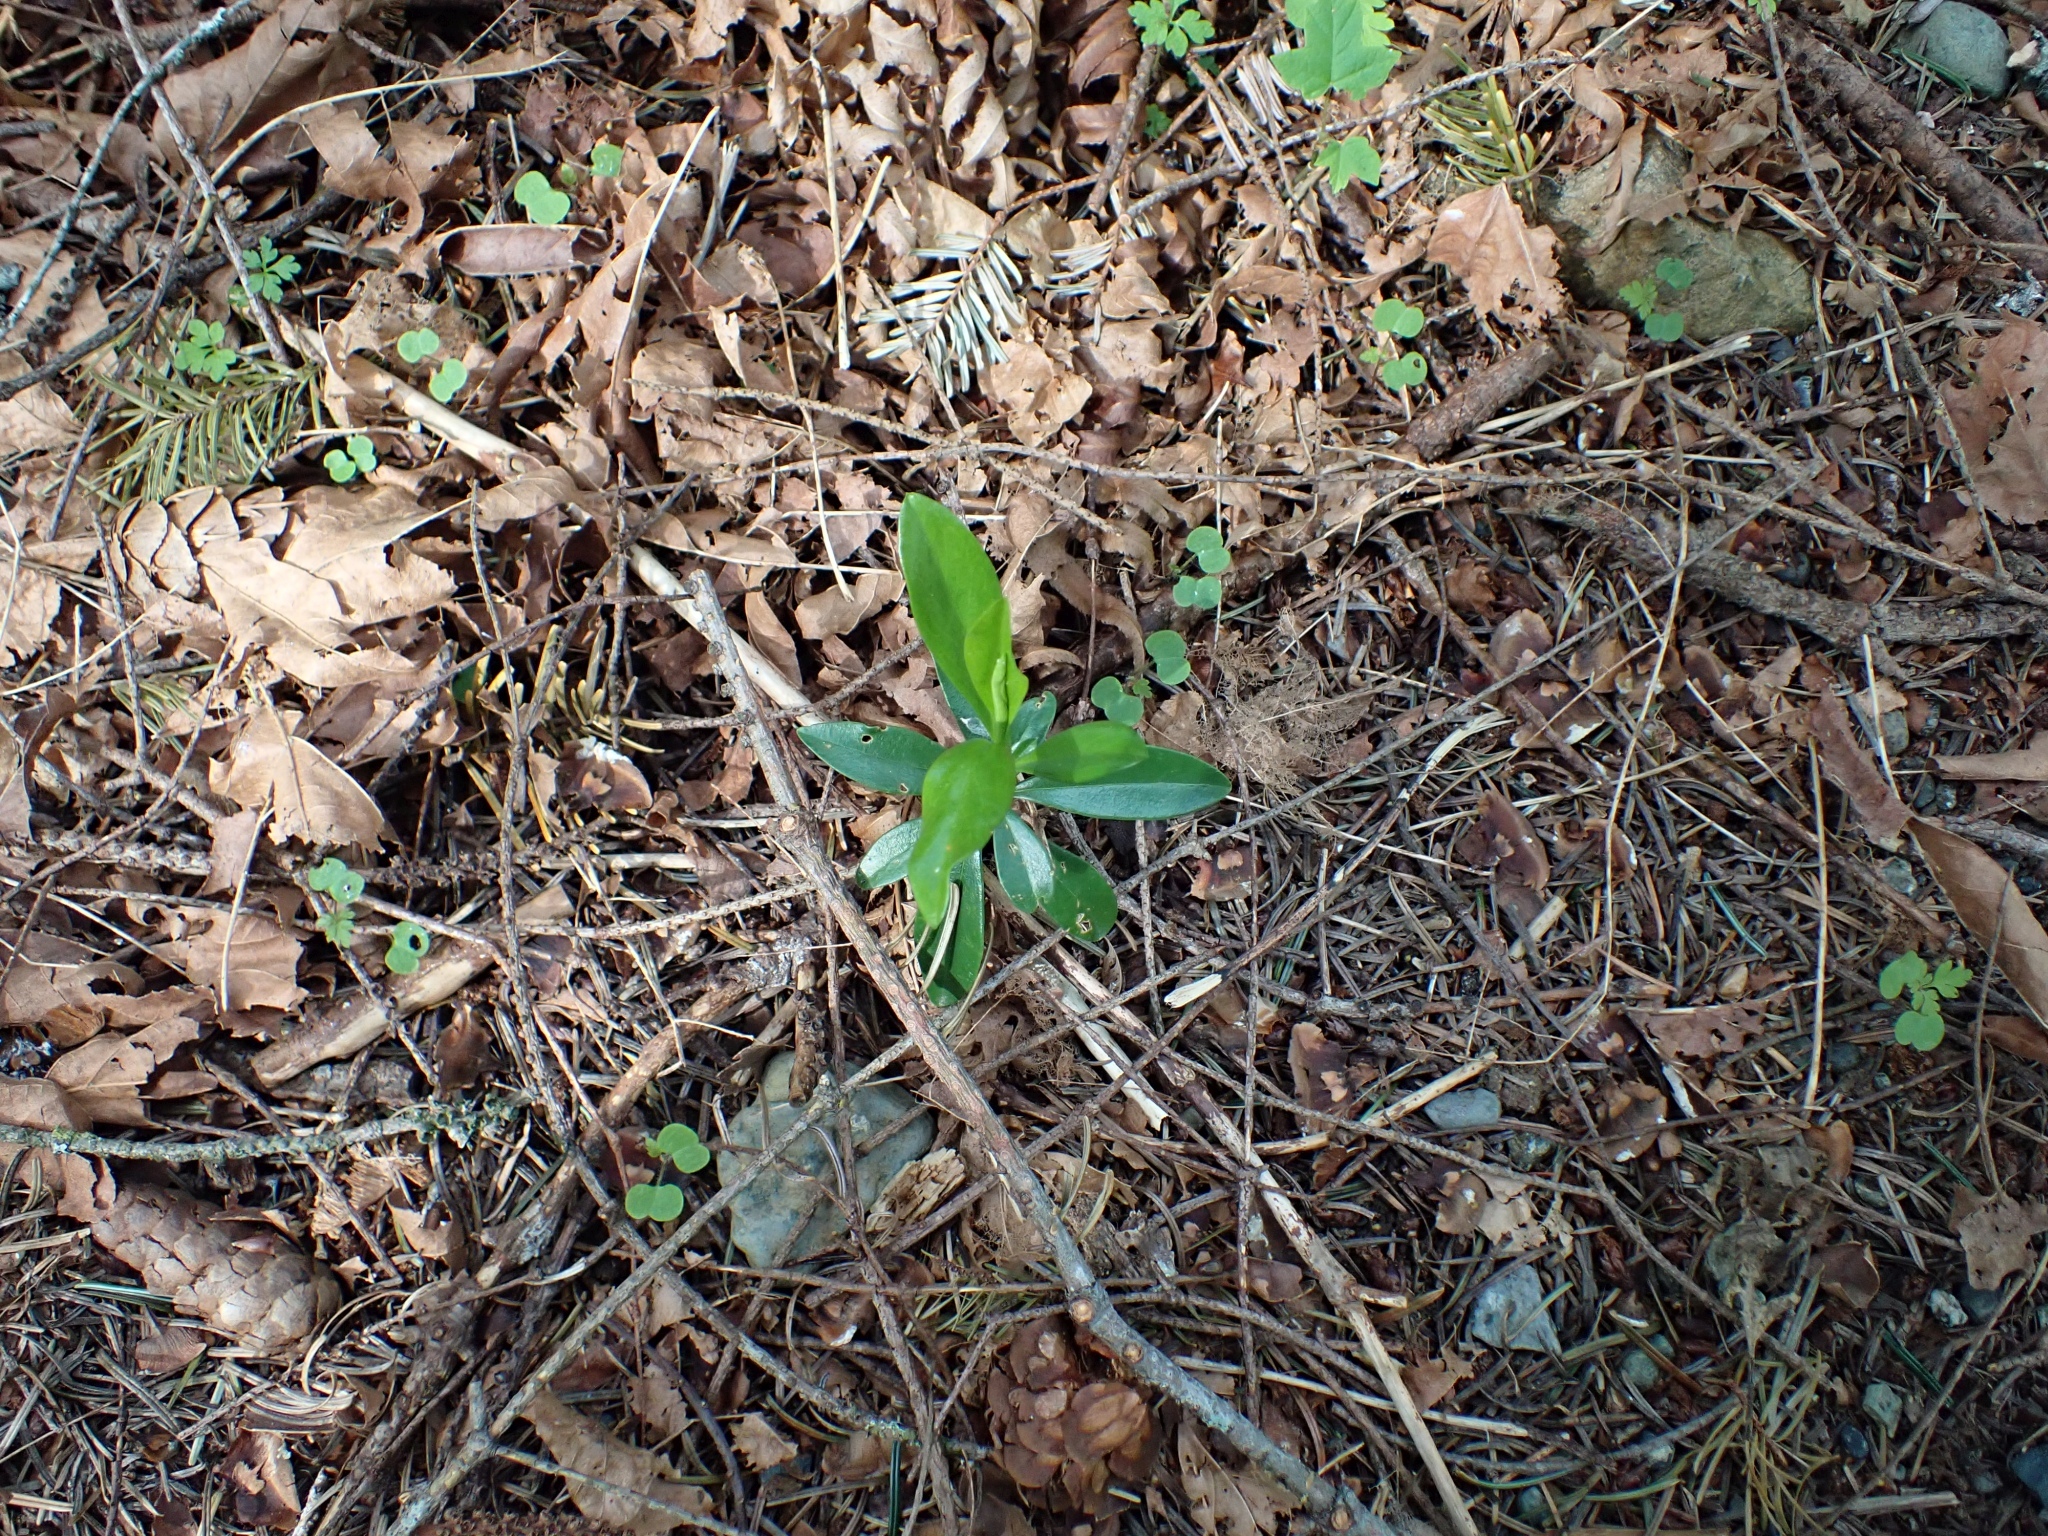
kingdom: Plantae
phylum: Tracheophyta
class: Magnoliopsida
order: Malvales
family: Thymelaeaceae
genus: Daphne
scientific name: Daphne laureola
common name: Spurge-laurel
